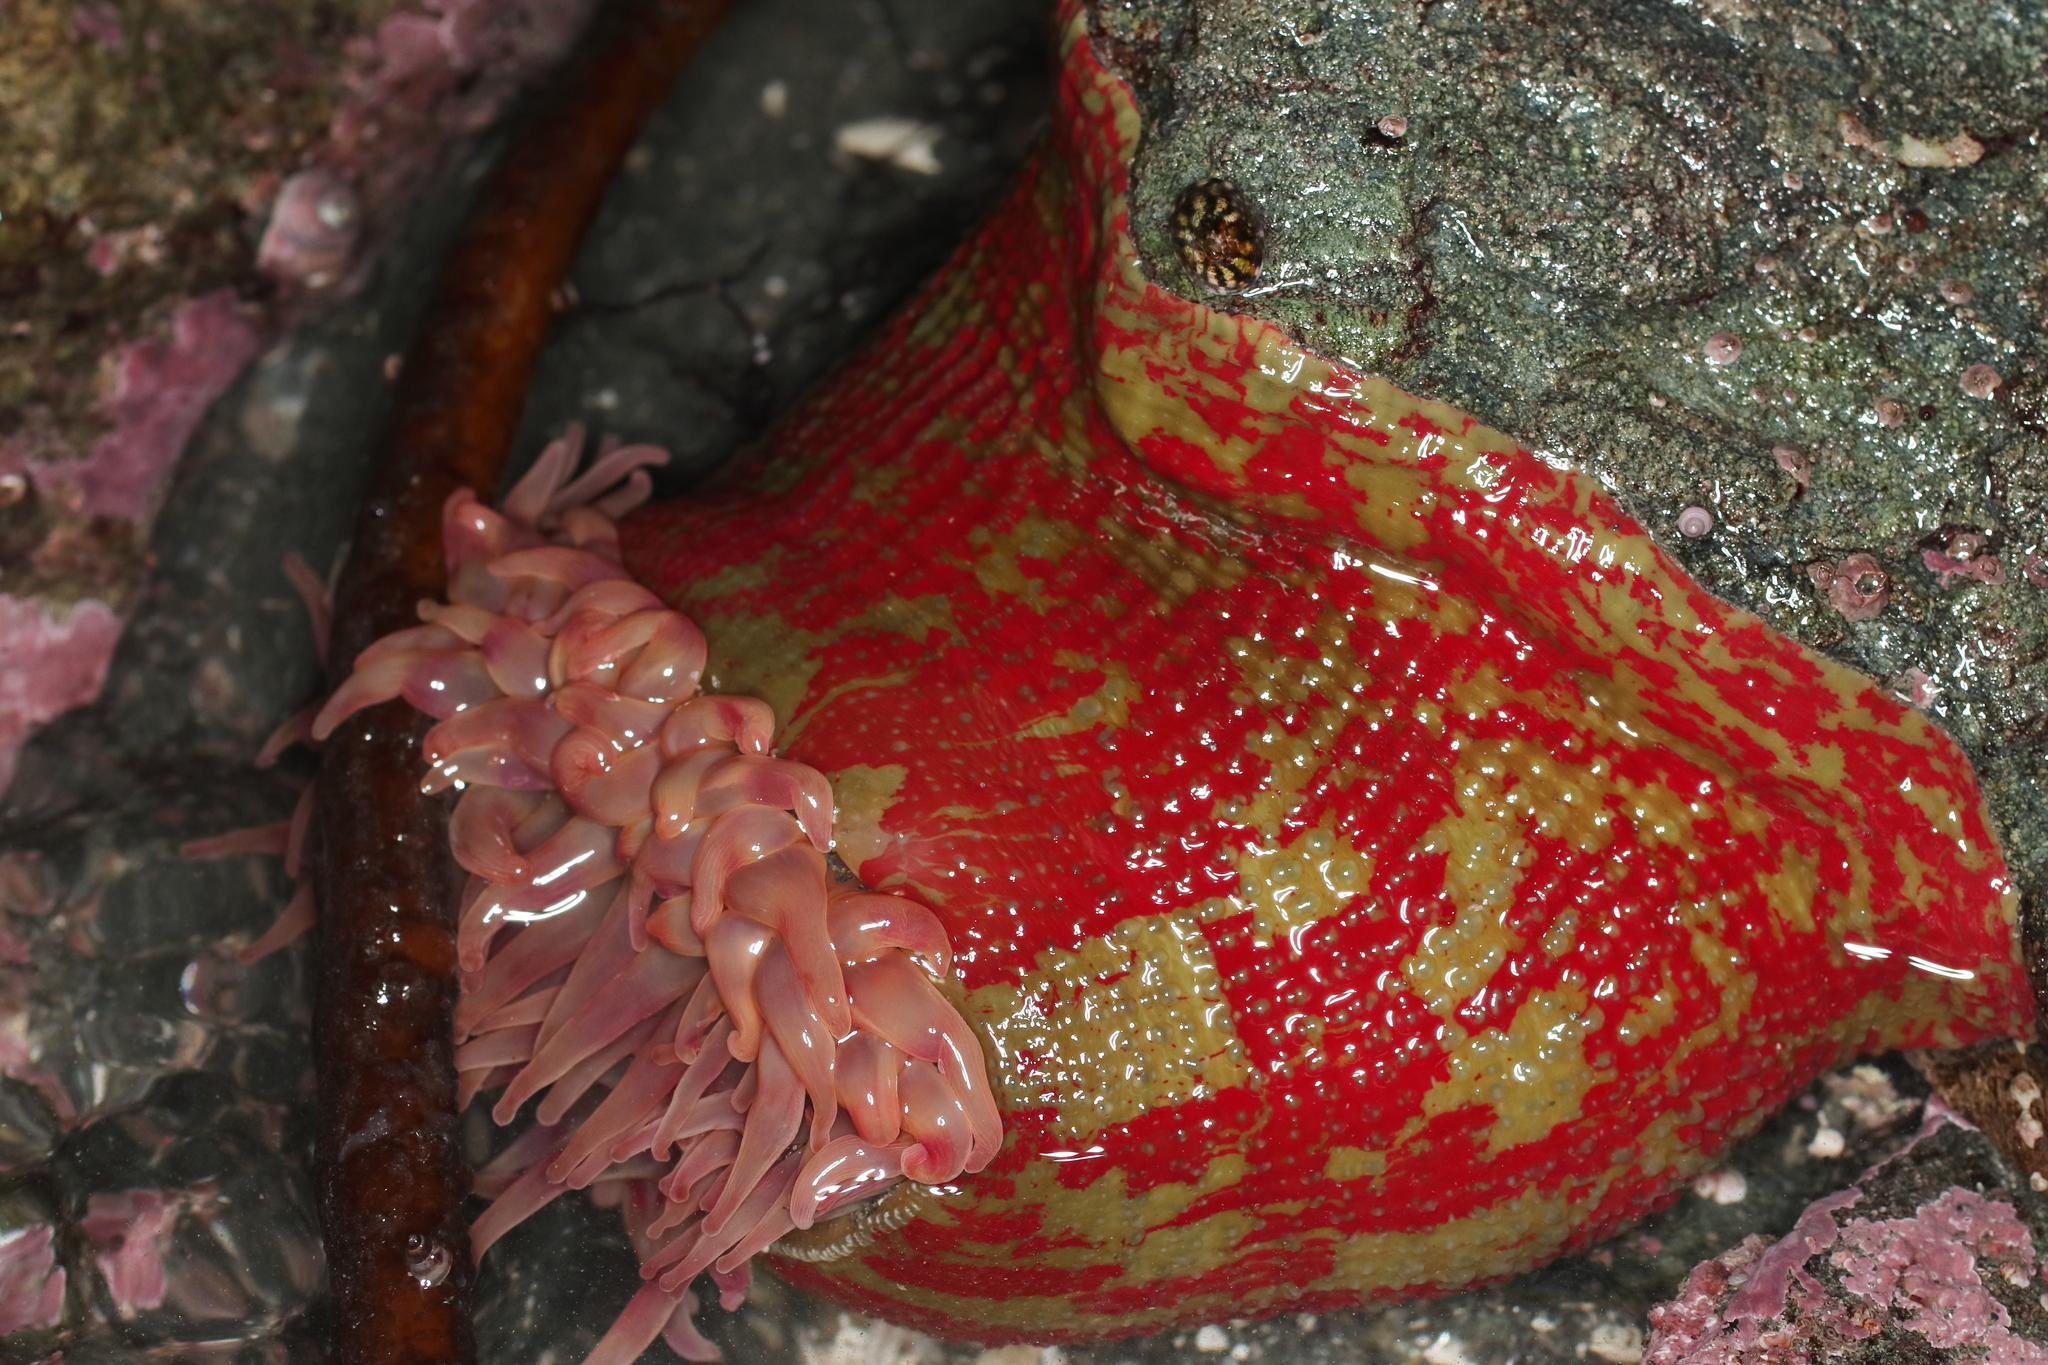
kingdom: Animalia
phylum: Cnidaria
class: Anthozoa
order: Actiniaria
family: Actiniidae
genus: Urticina
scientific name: Urticina grebelnyi
